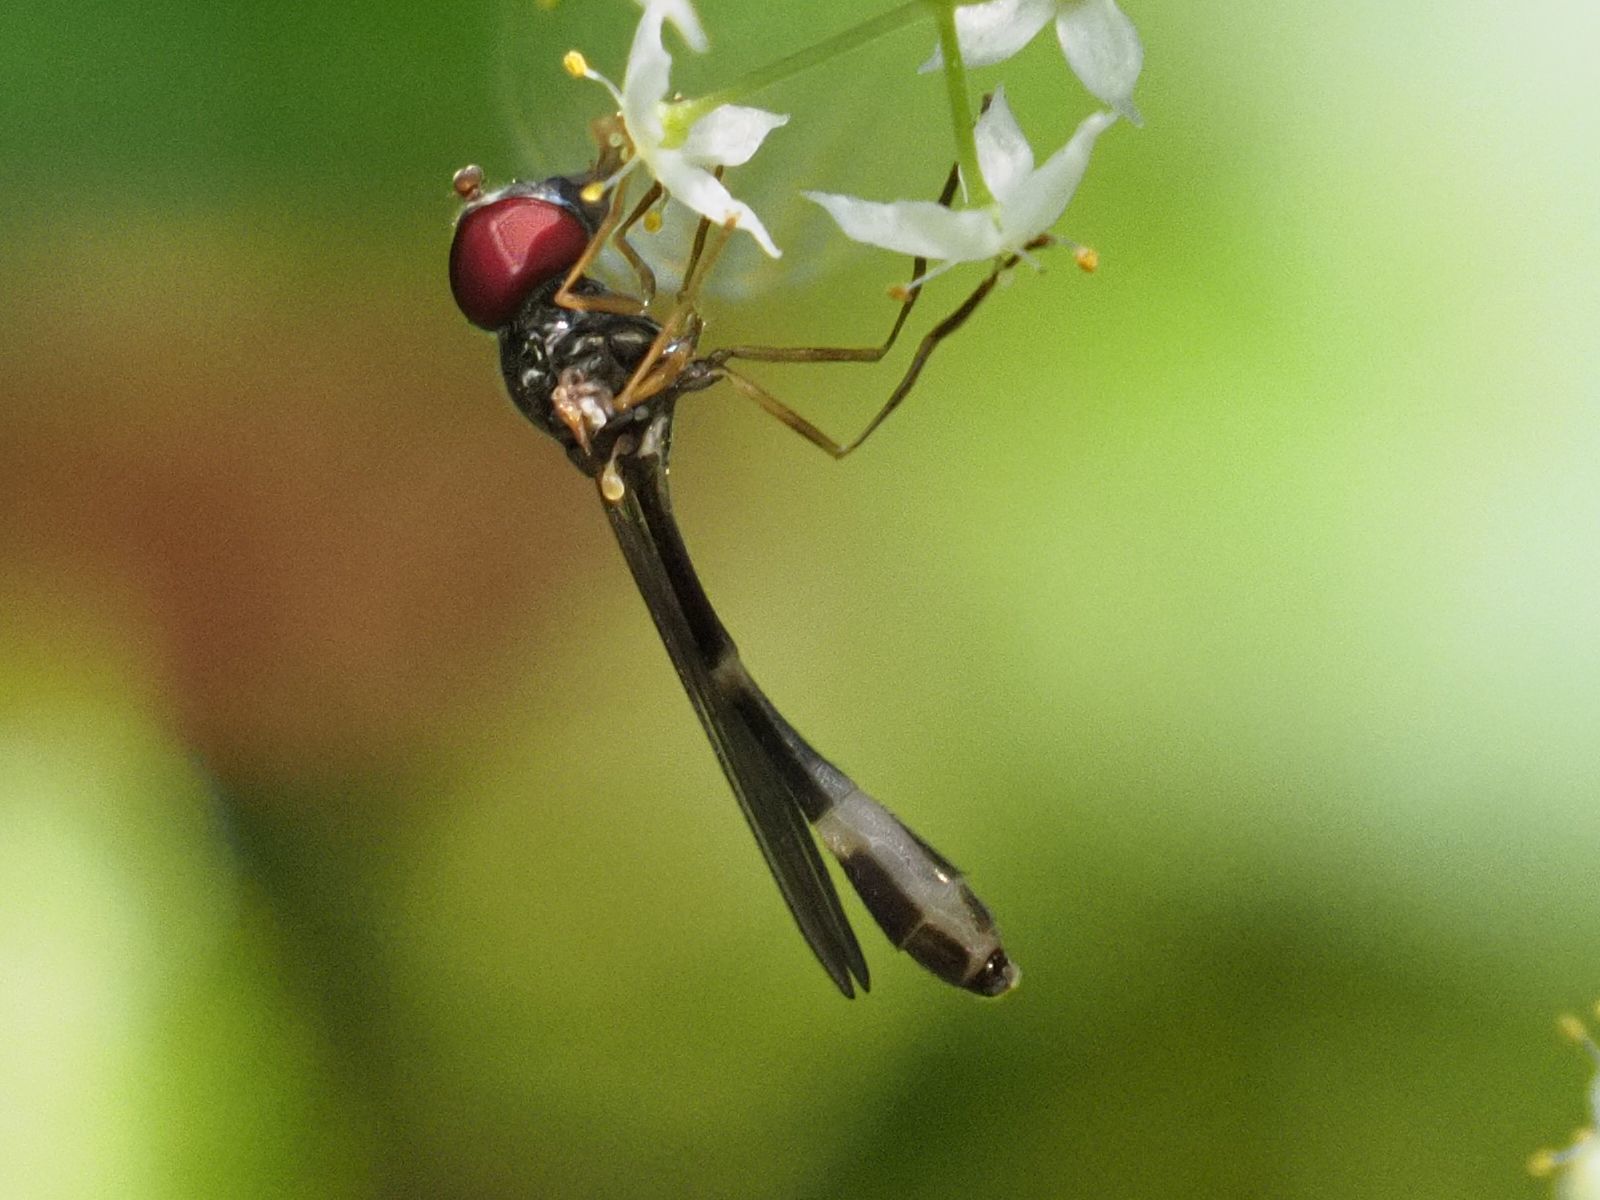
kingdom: Animalia
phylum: Arthropoda
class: Insecta
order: Diptera
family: Syrphidae
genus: Baccha
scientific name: Baccha elongata
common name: Common dainty
